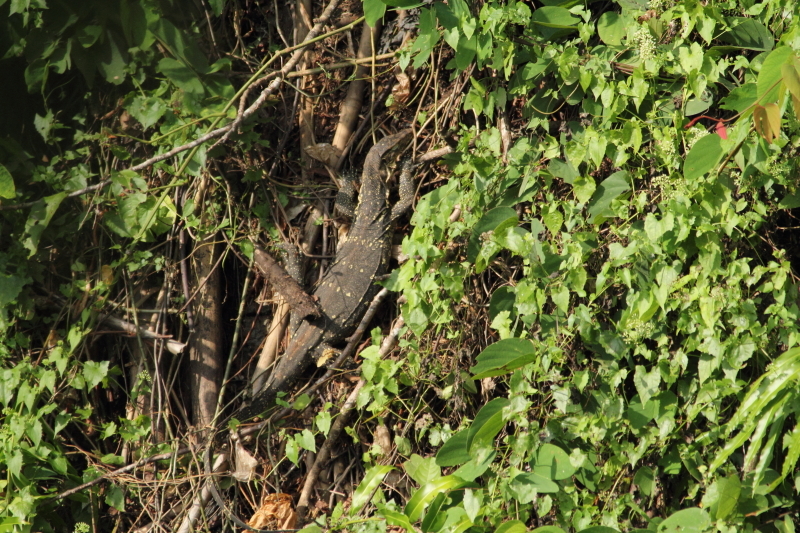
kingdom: Animalia
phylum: Chordata
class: Squamata
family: Varanidae
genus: Varanus
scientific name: Varanus salvator
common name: Common water monitor
